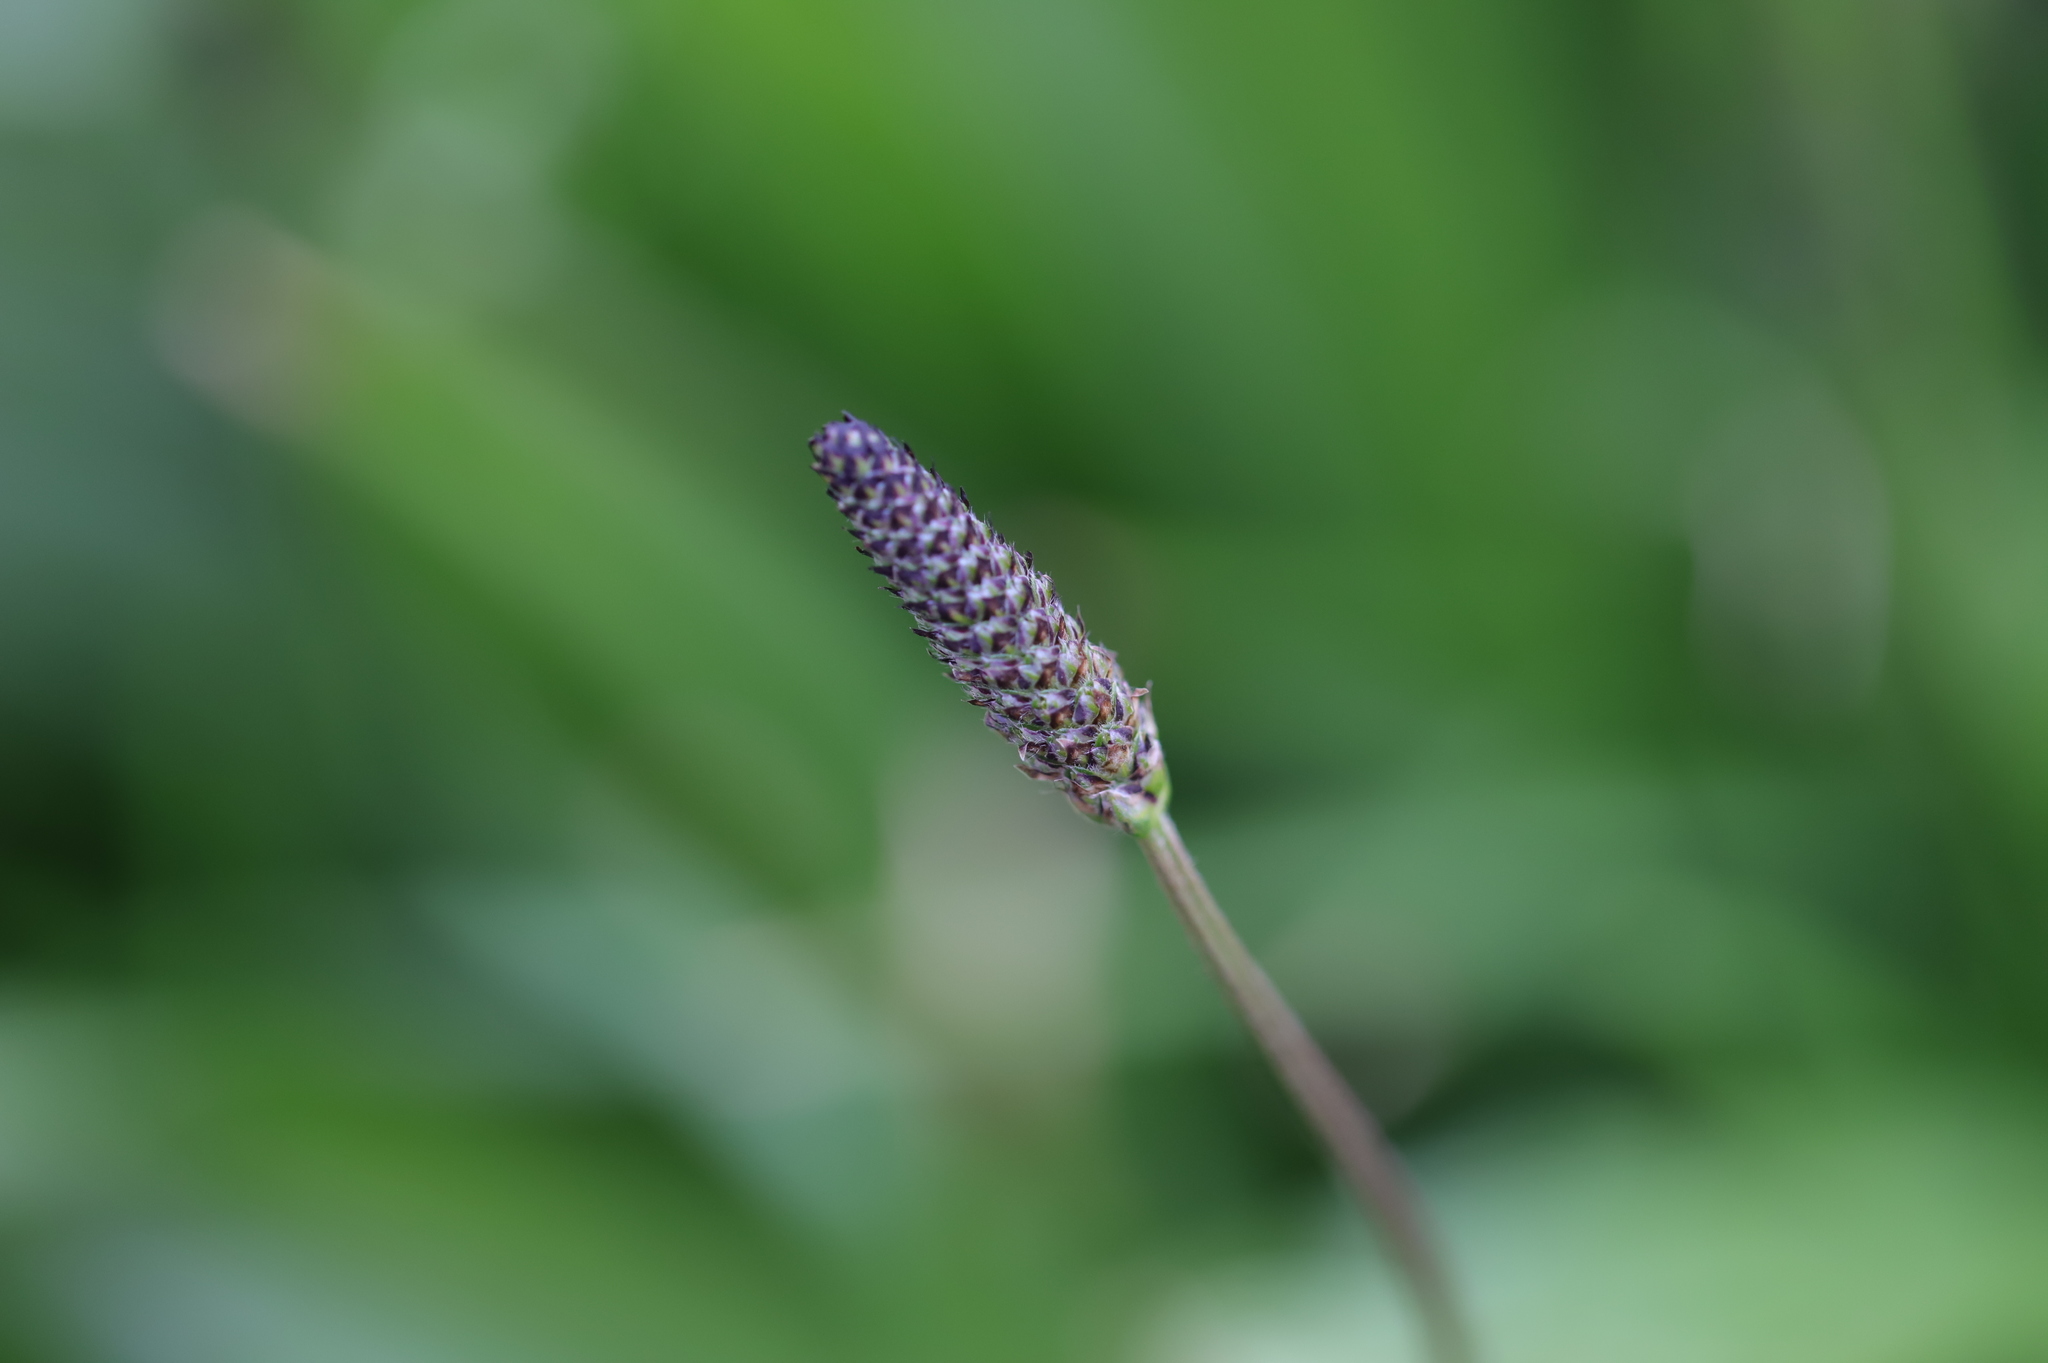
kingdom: Plantae
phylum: Tracheophyta
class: Magnoliopsida
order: Lamiales
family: Plantaginaceae
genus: Plantago
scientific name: Plantago lanceolata
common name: Ribwort plantain
